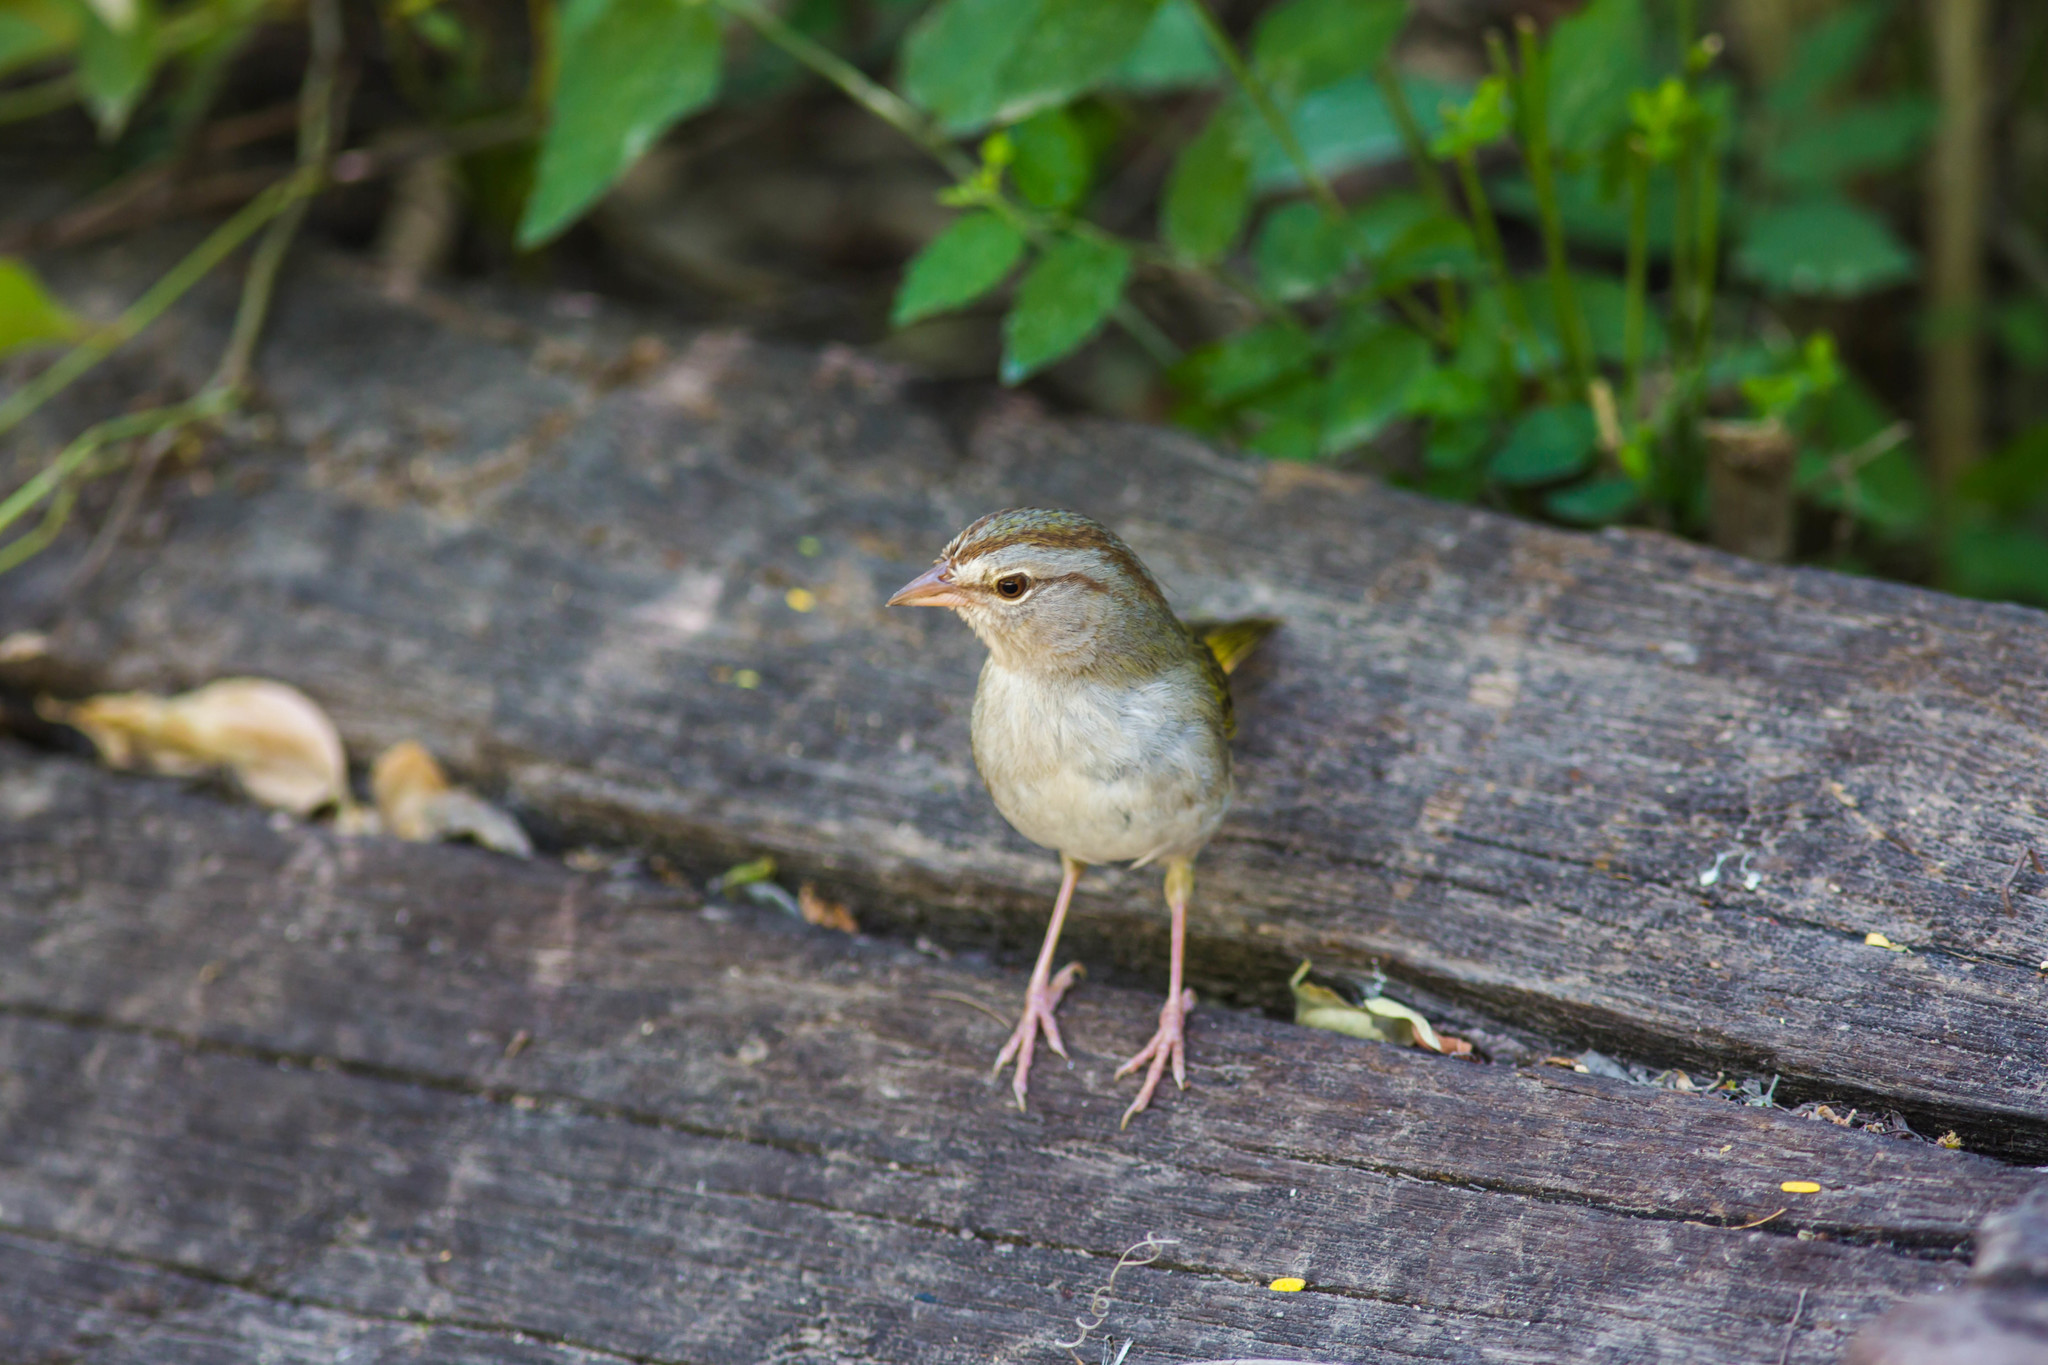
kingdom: Animalia
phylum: Chordata
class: Aves
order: Passeriformes
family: Passerellidae
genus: Arremonops
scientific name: Arremonops rufivirgatus
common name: Olive sparrow
